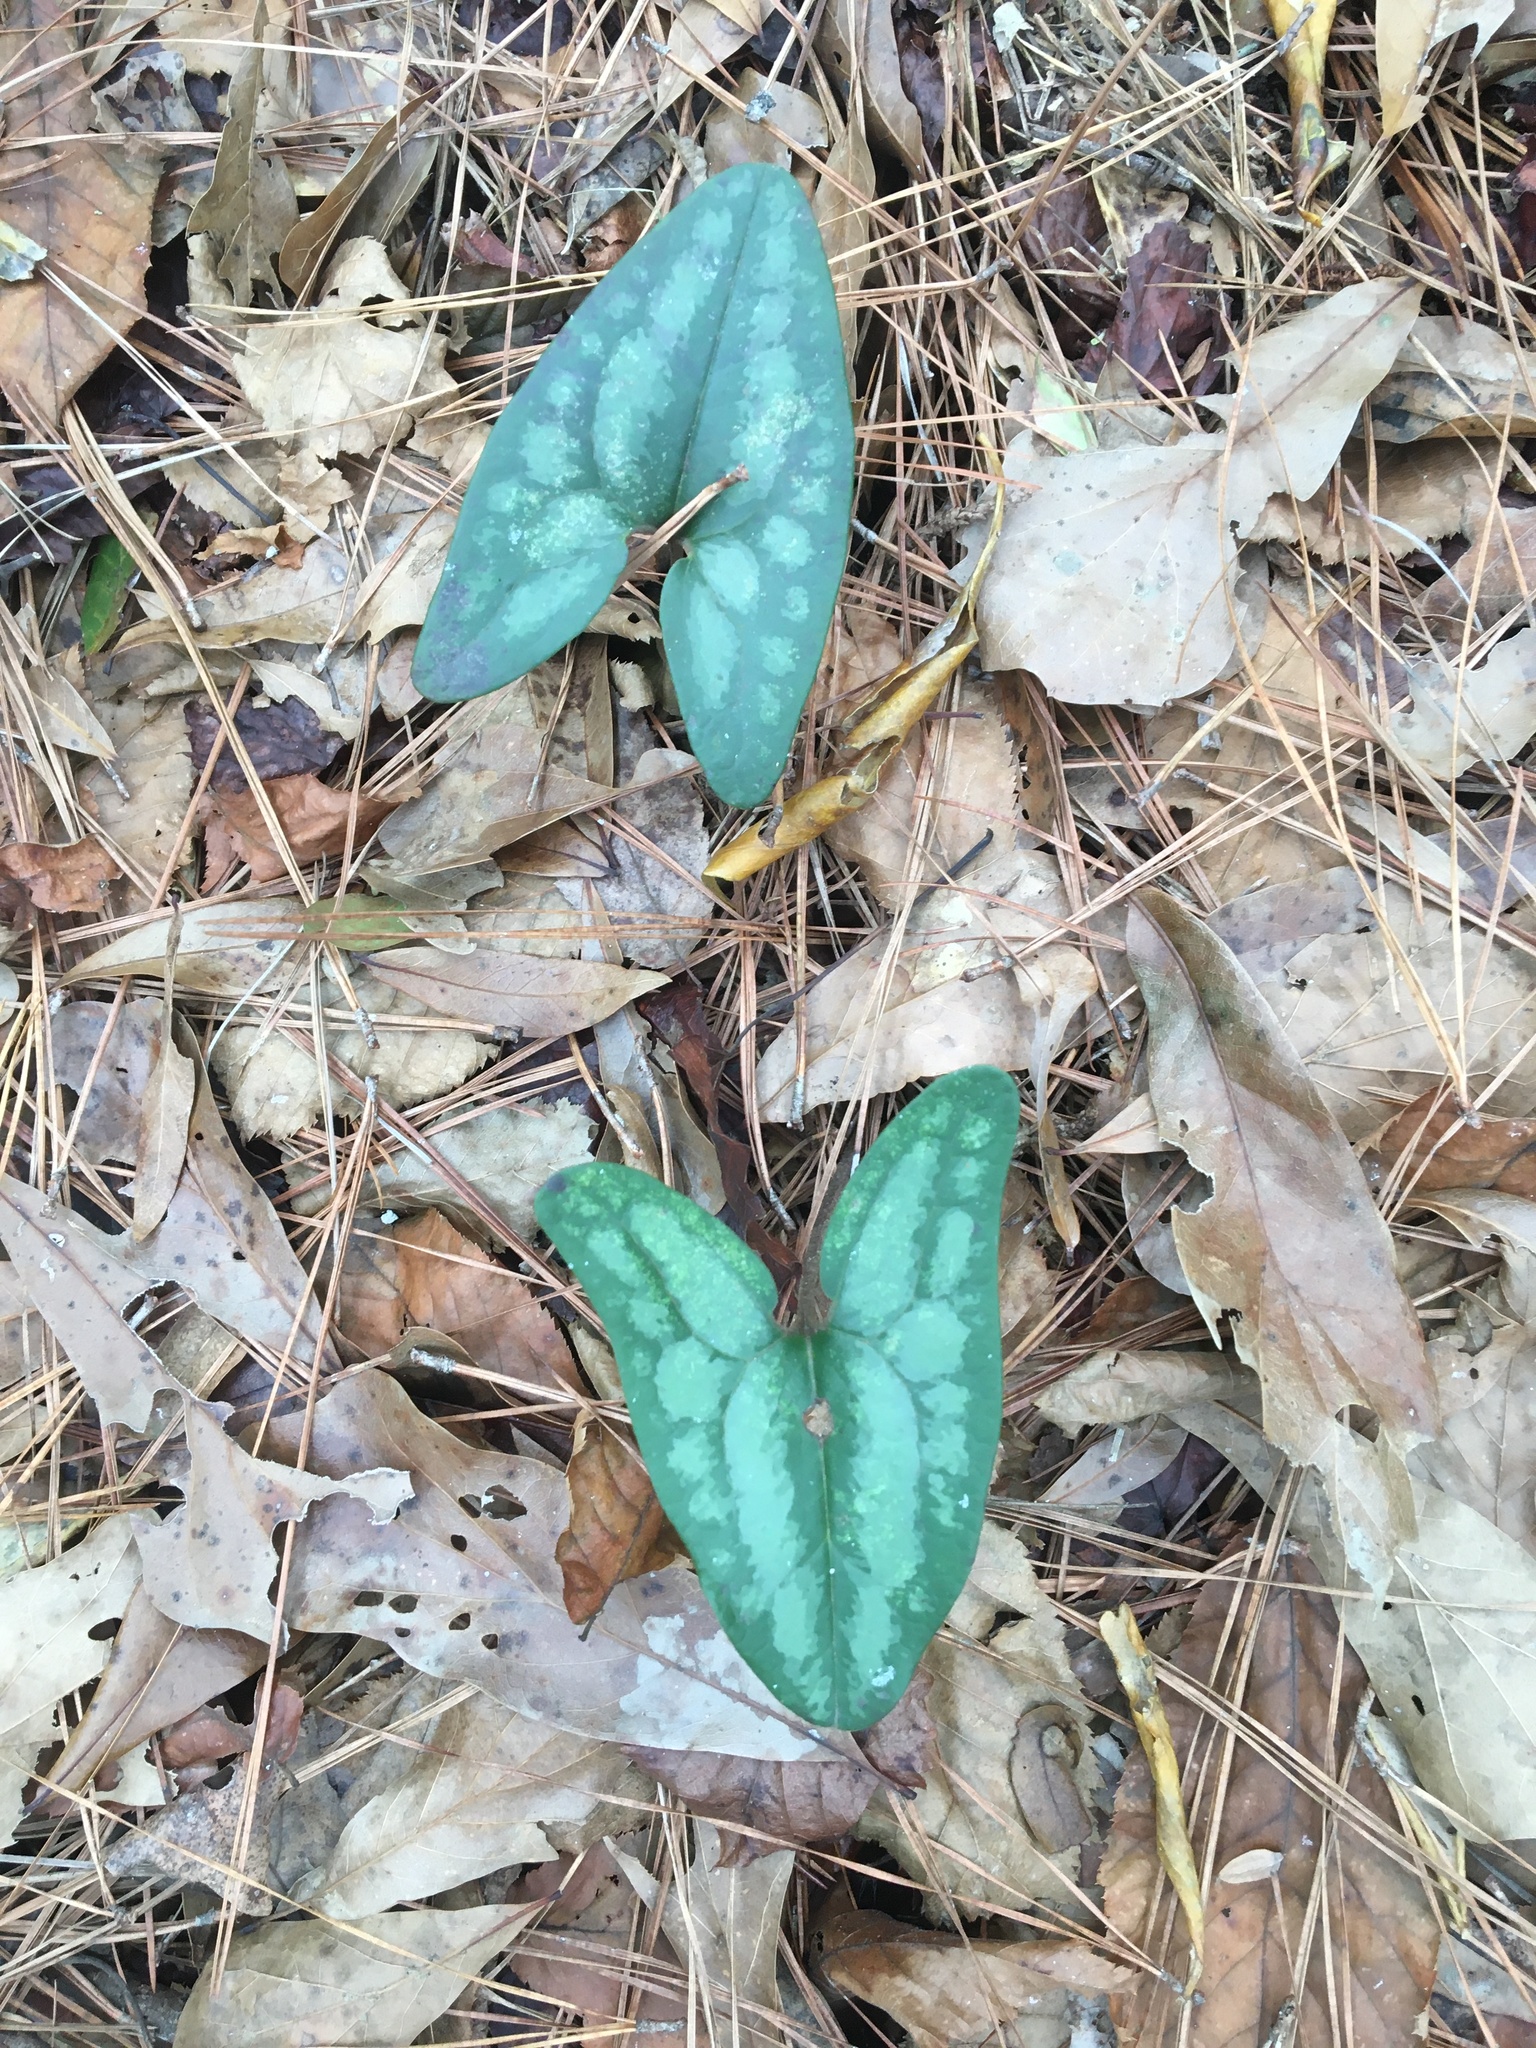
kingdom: Plantae
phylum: Tracheophyta
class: Magnoliopsida
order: Piperales
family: Aristolochiaceae
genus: Hexastylis
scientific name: Hexastylis arifolia
